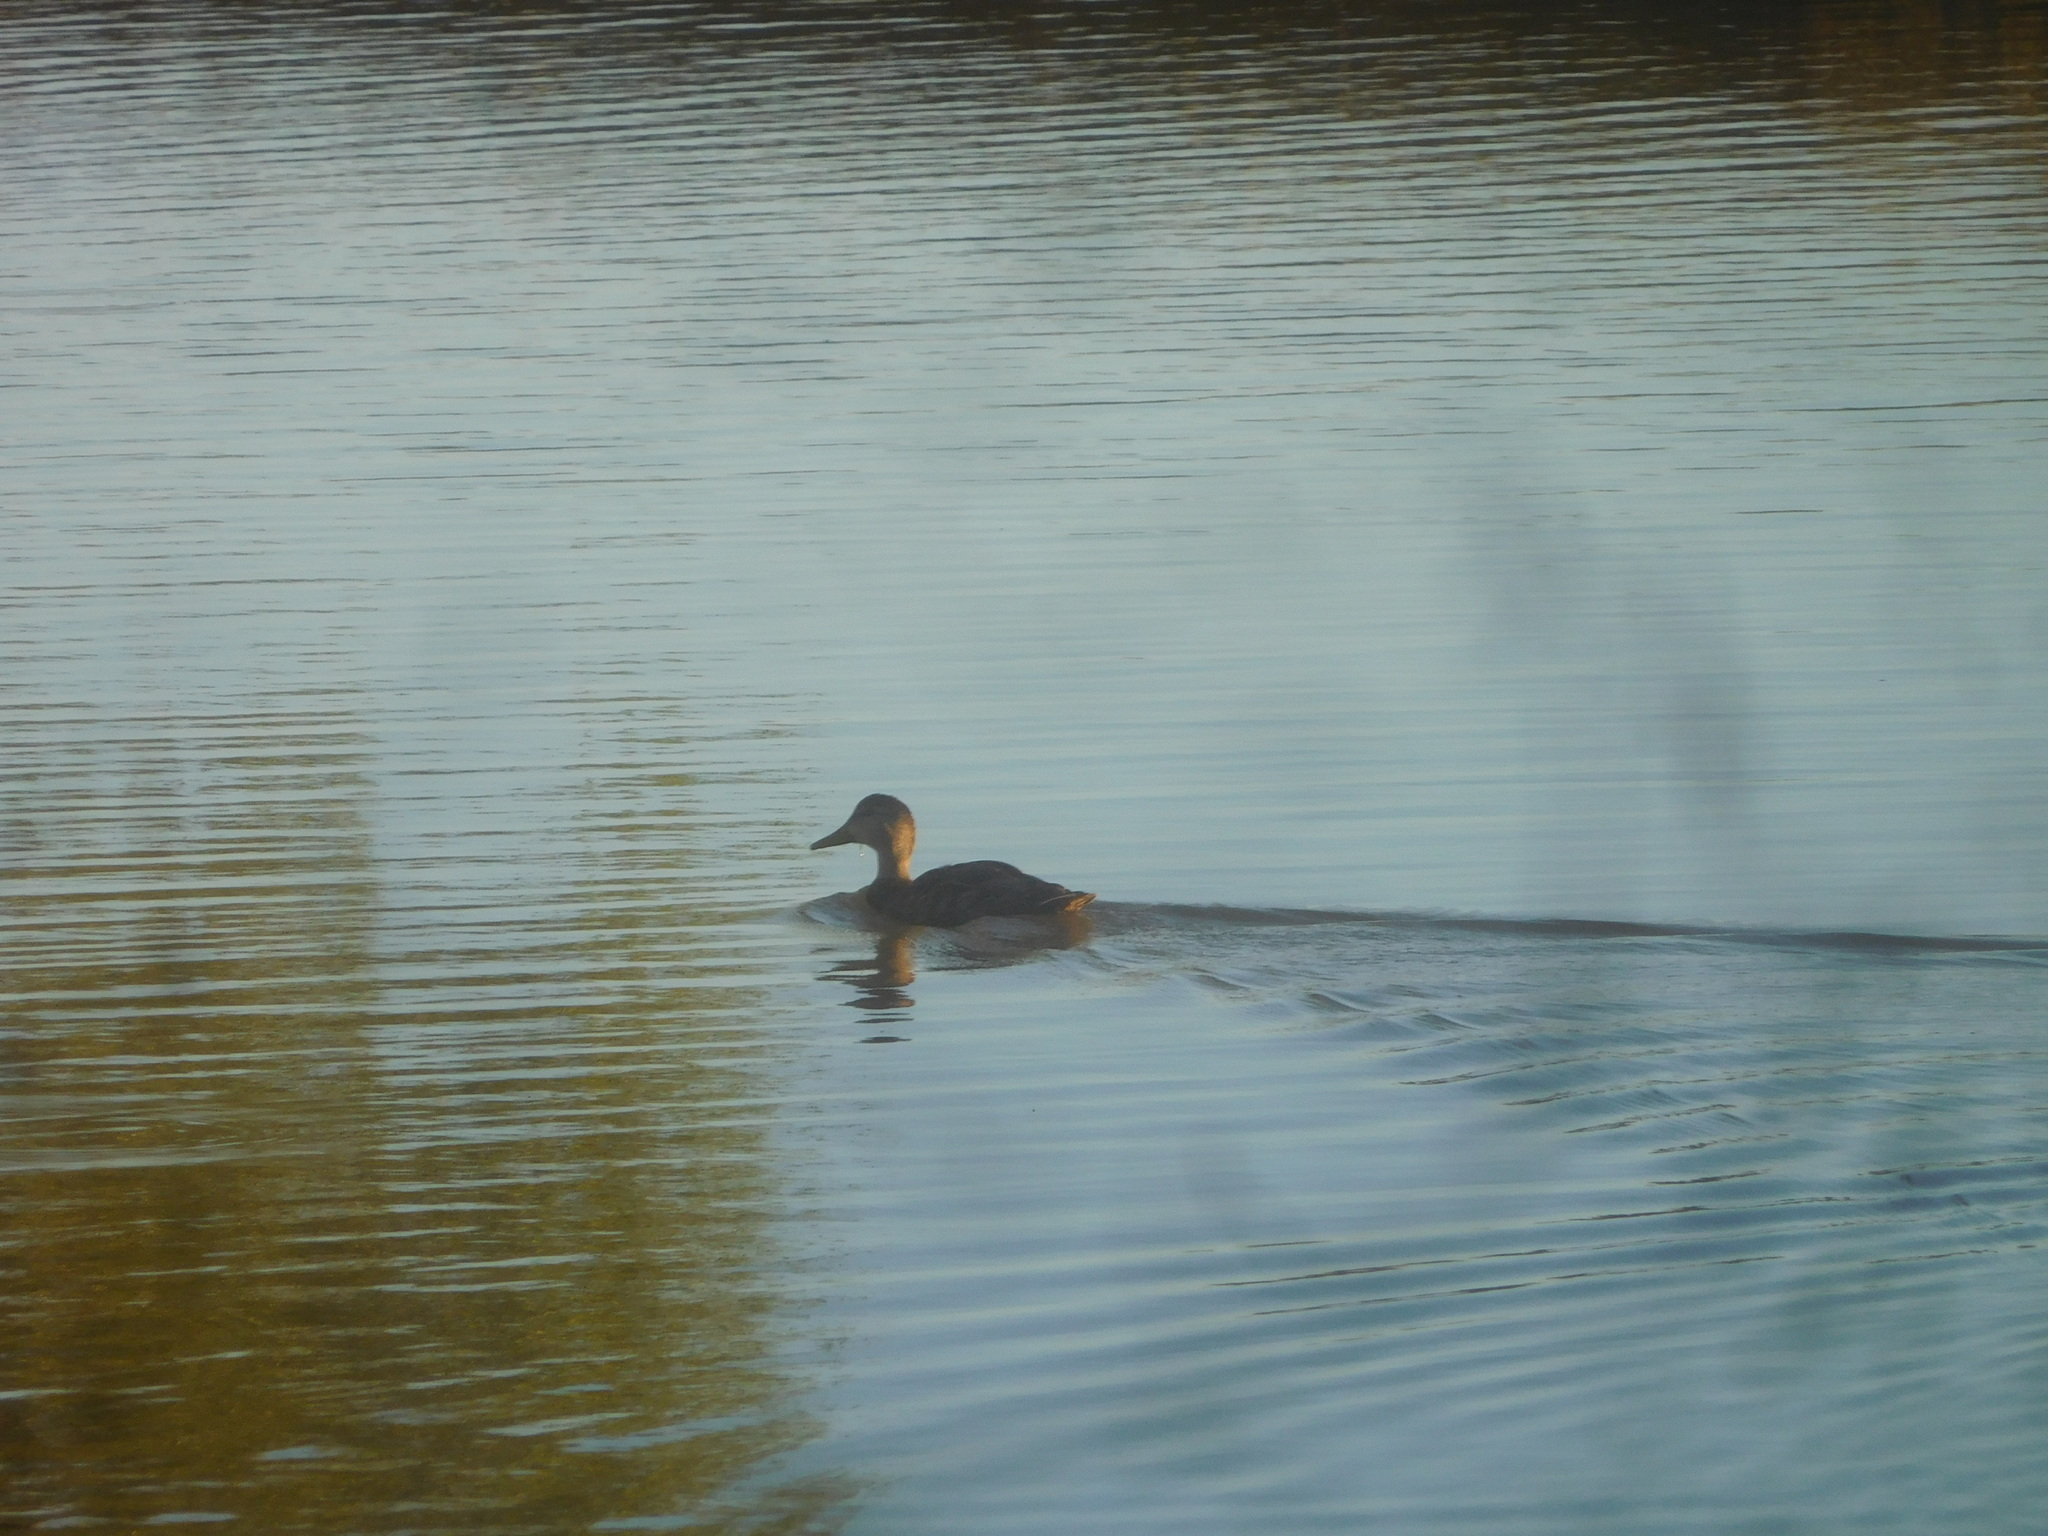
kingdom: Animalia
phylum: Chordata
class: Aves
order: Anseriformes
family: Anatidae
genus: Anas
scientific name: Anas diazi
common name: Mexican duck
